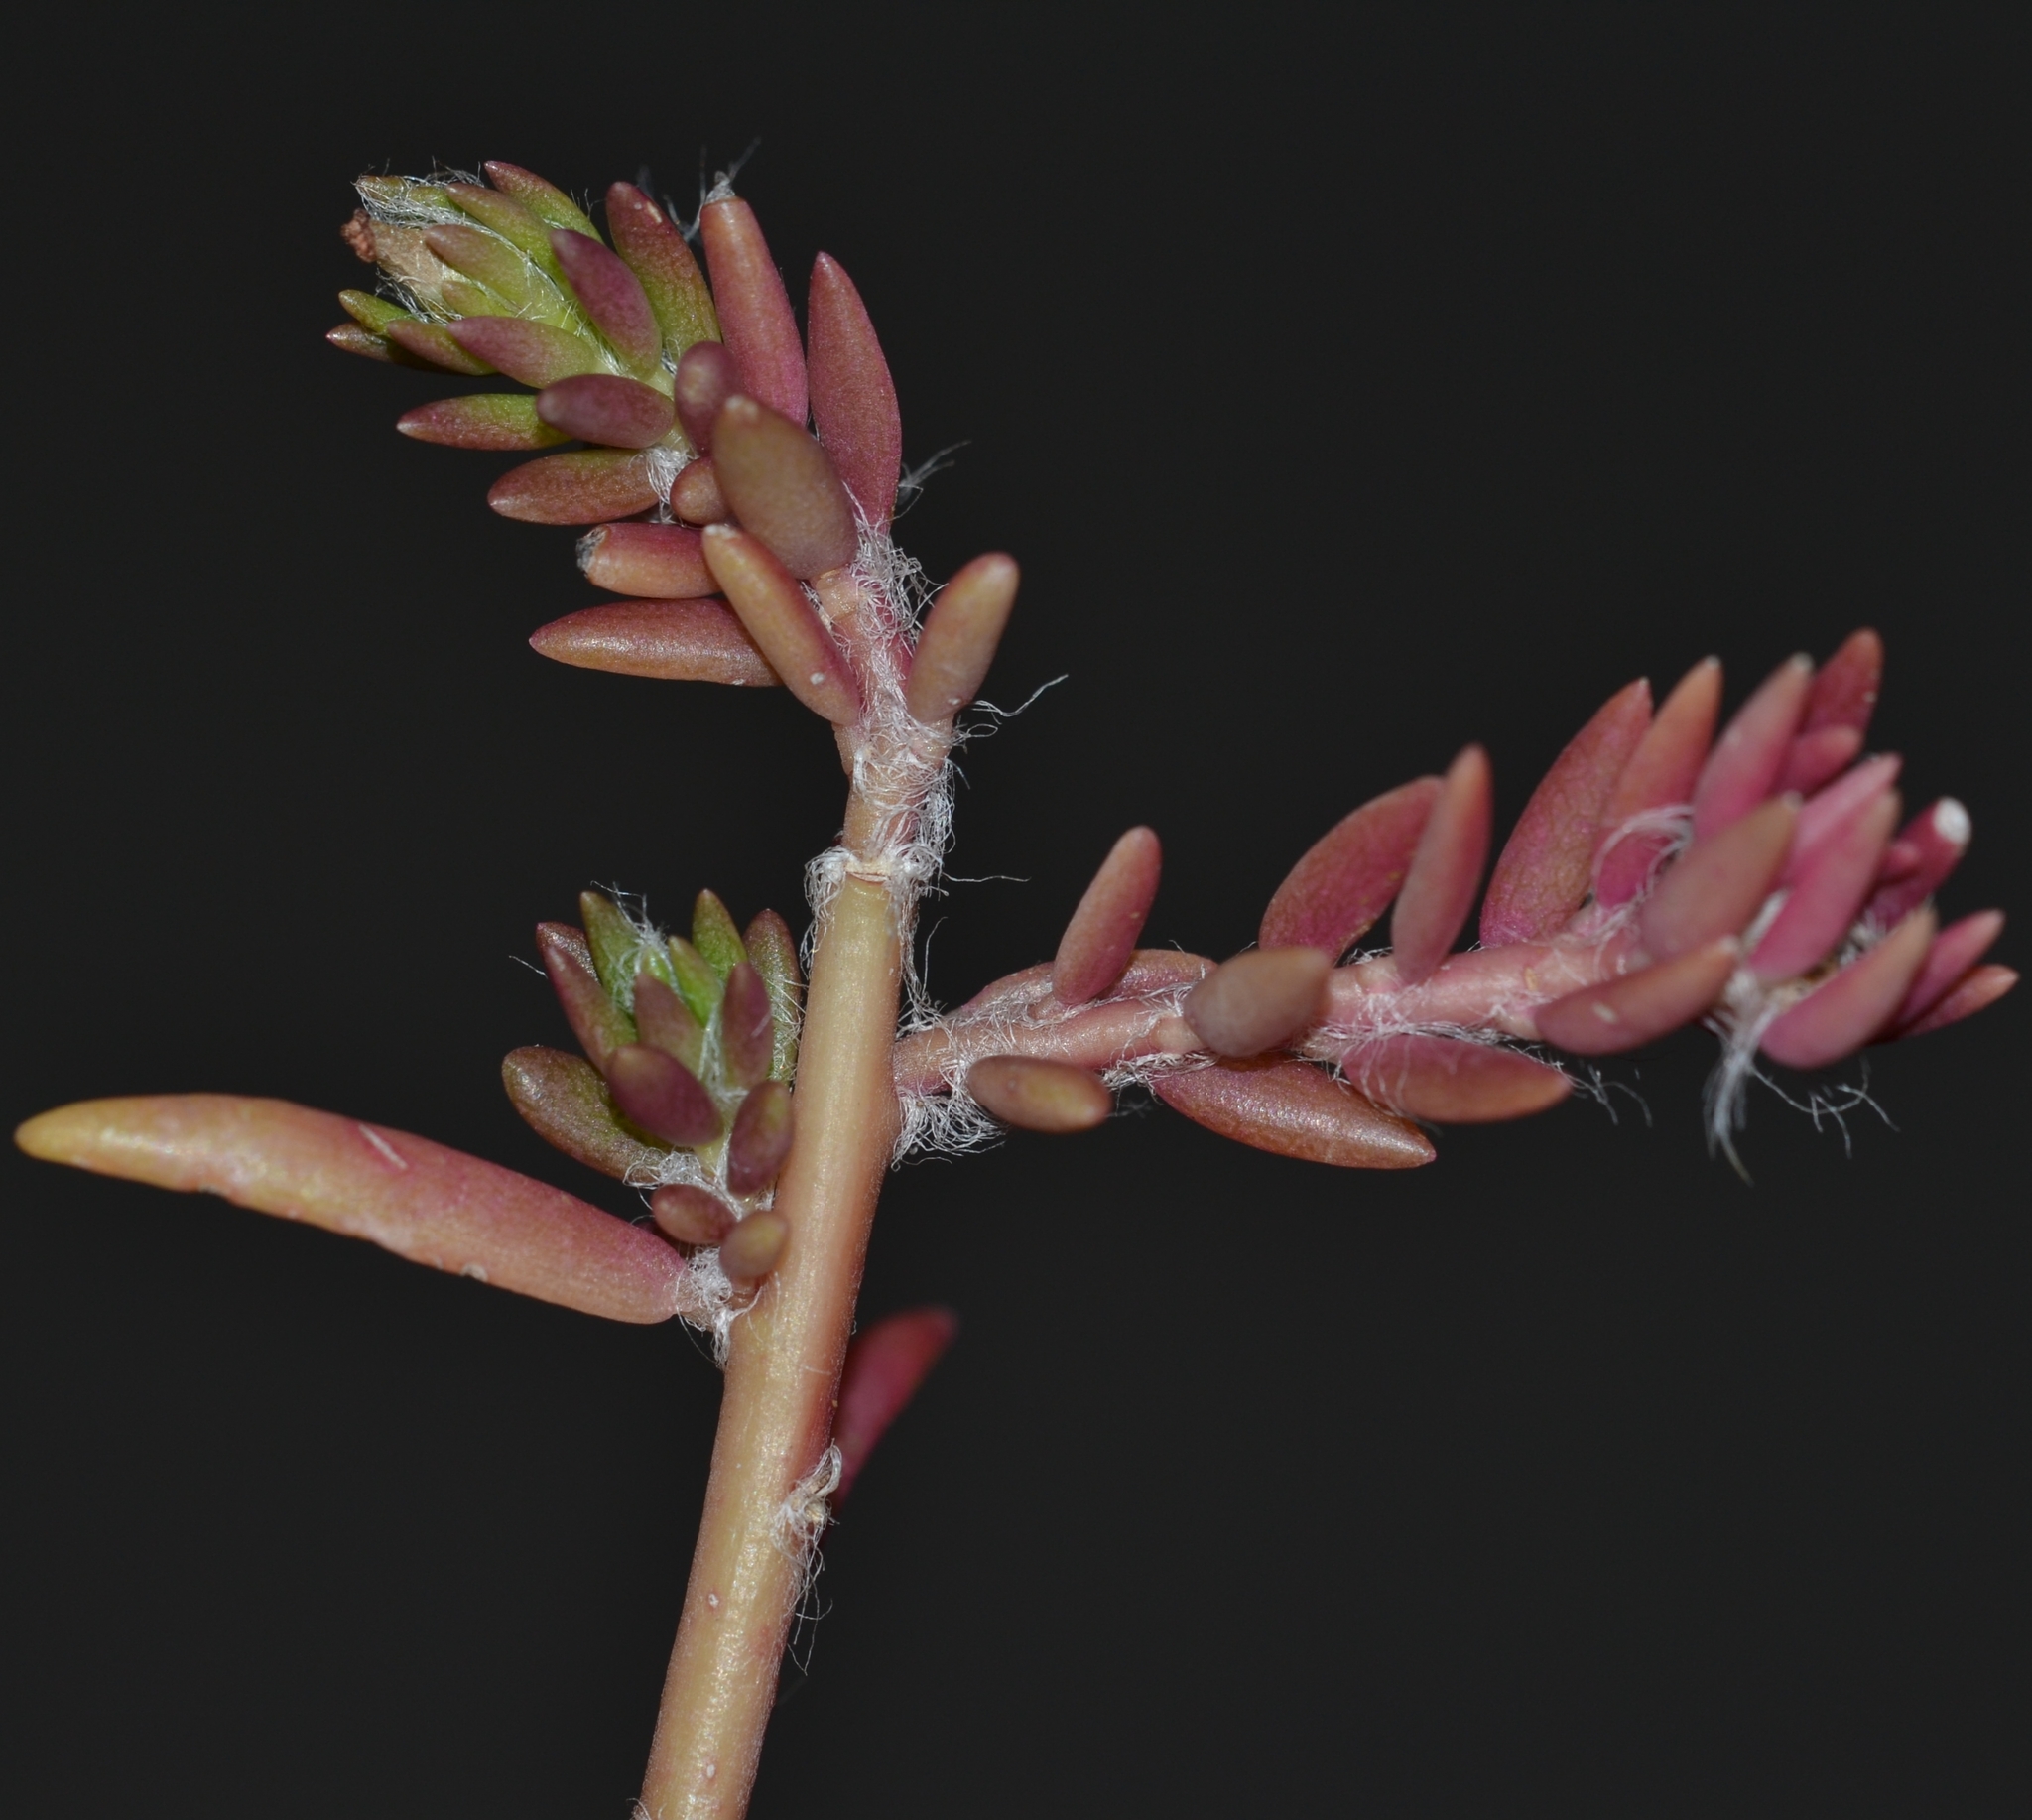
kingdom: Plantae
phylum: Tracheophyta
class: Magnoliopsida
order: Caryophyllales
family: Portulacaceae
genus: Portulaca
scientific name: Portulaca pilosa
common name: Kiss me quick
